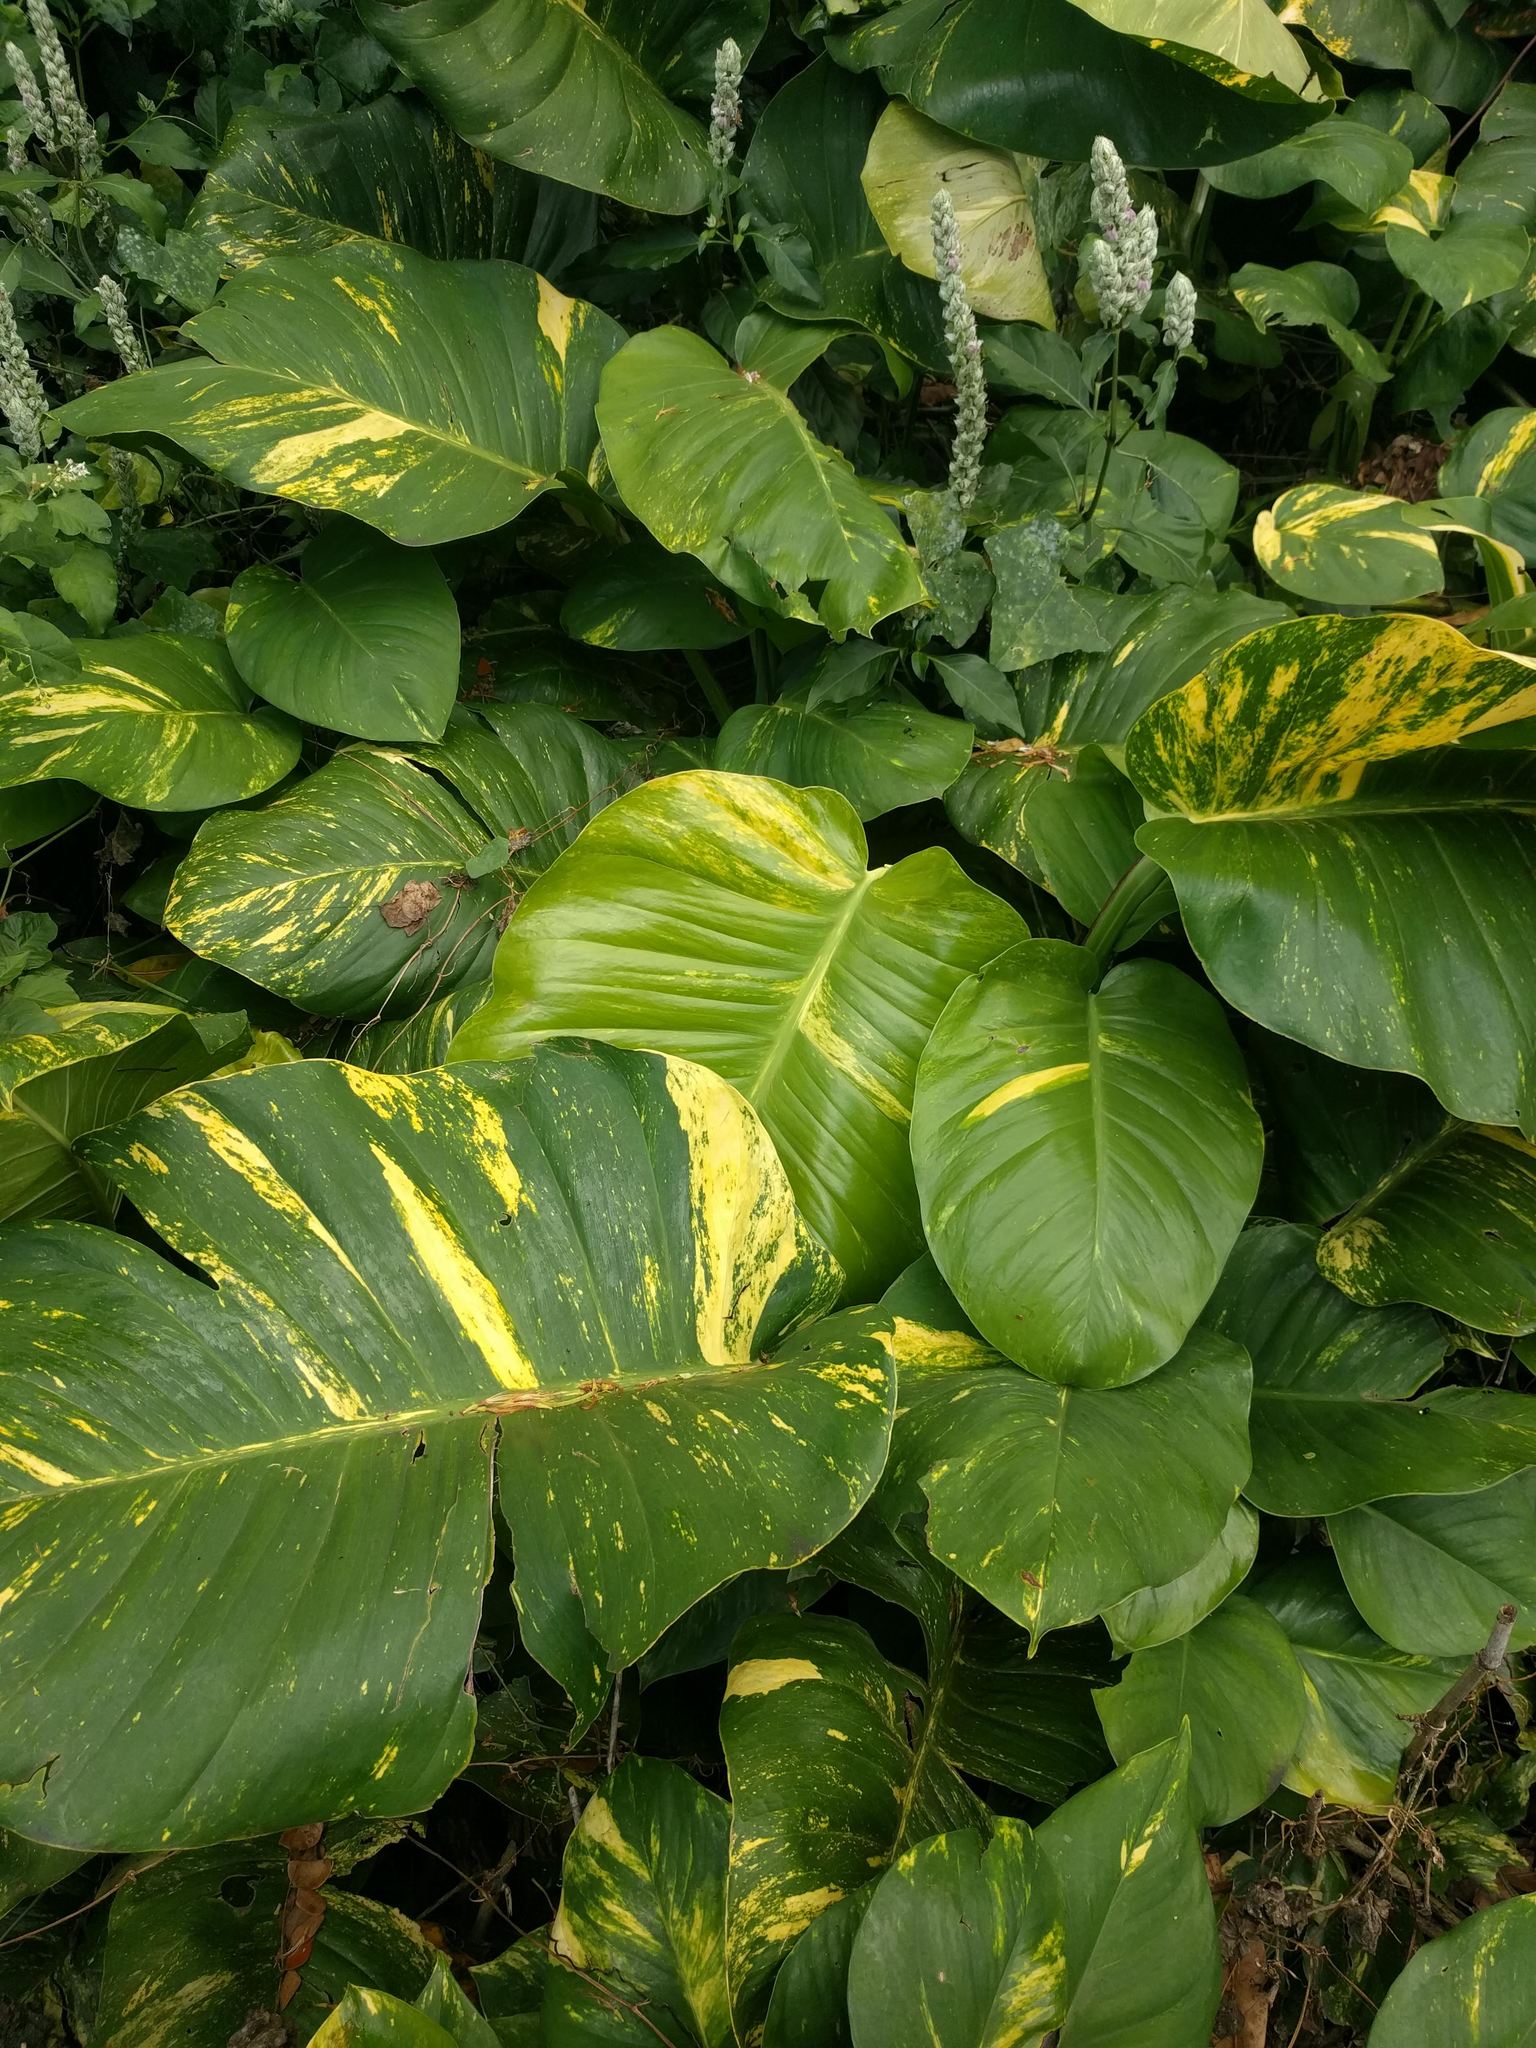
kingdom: Plantae
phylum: Tracheophyta
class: Liliopsida
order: Alismatales
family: Araceae
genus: Epipremnum
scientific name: Epipremnum aureum
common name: Golden hunter's-robe
